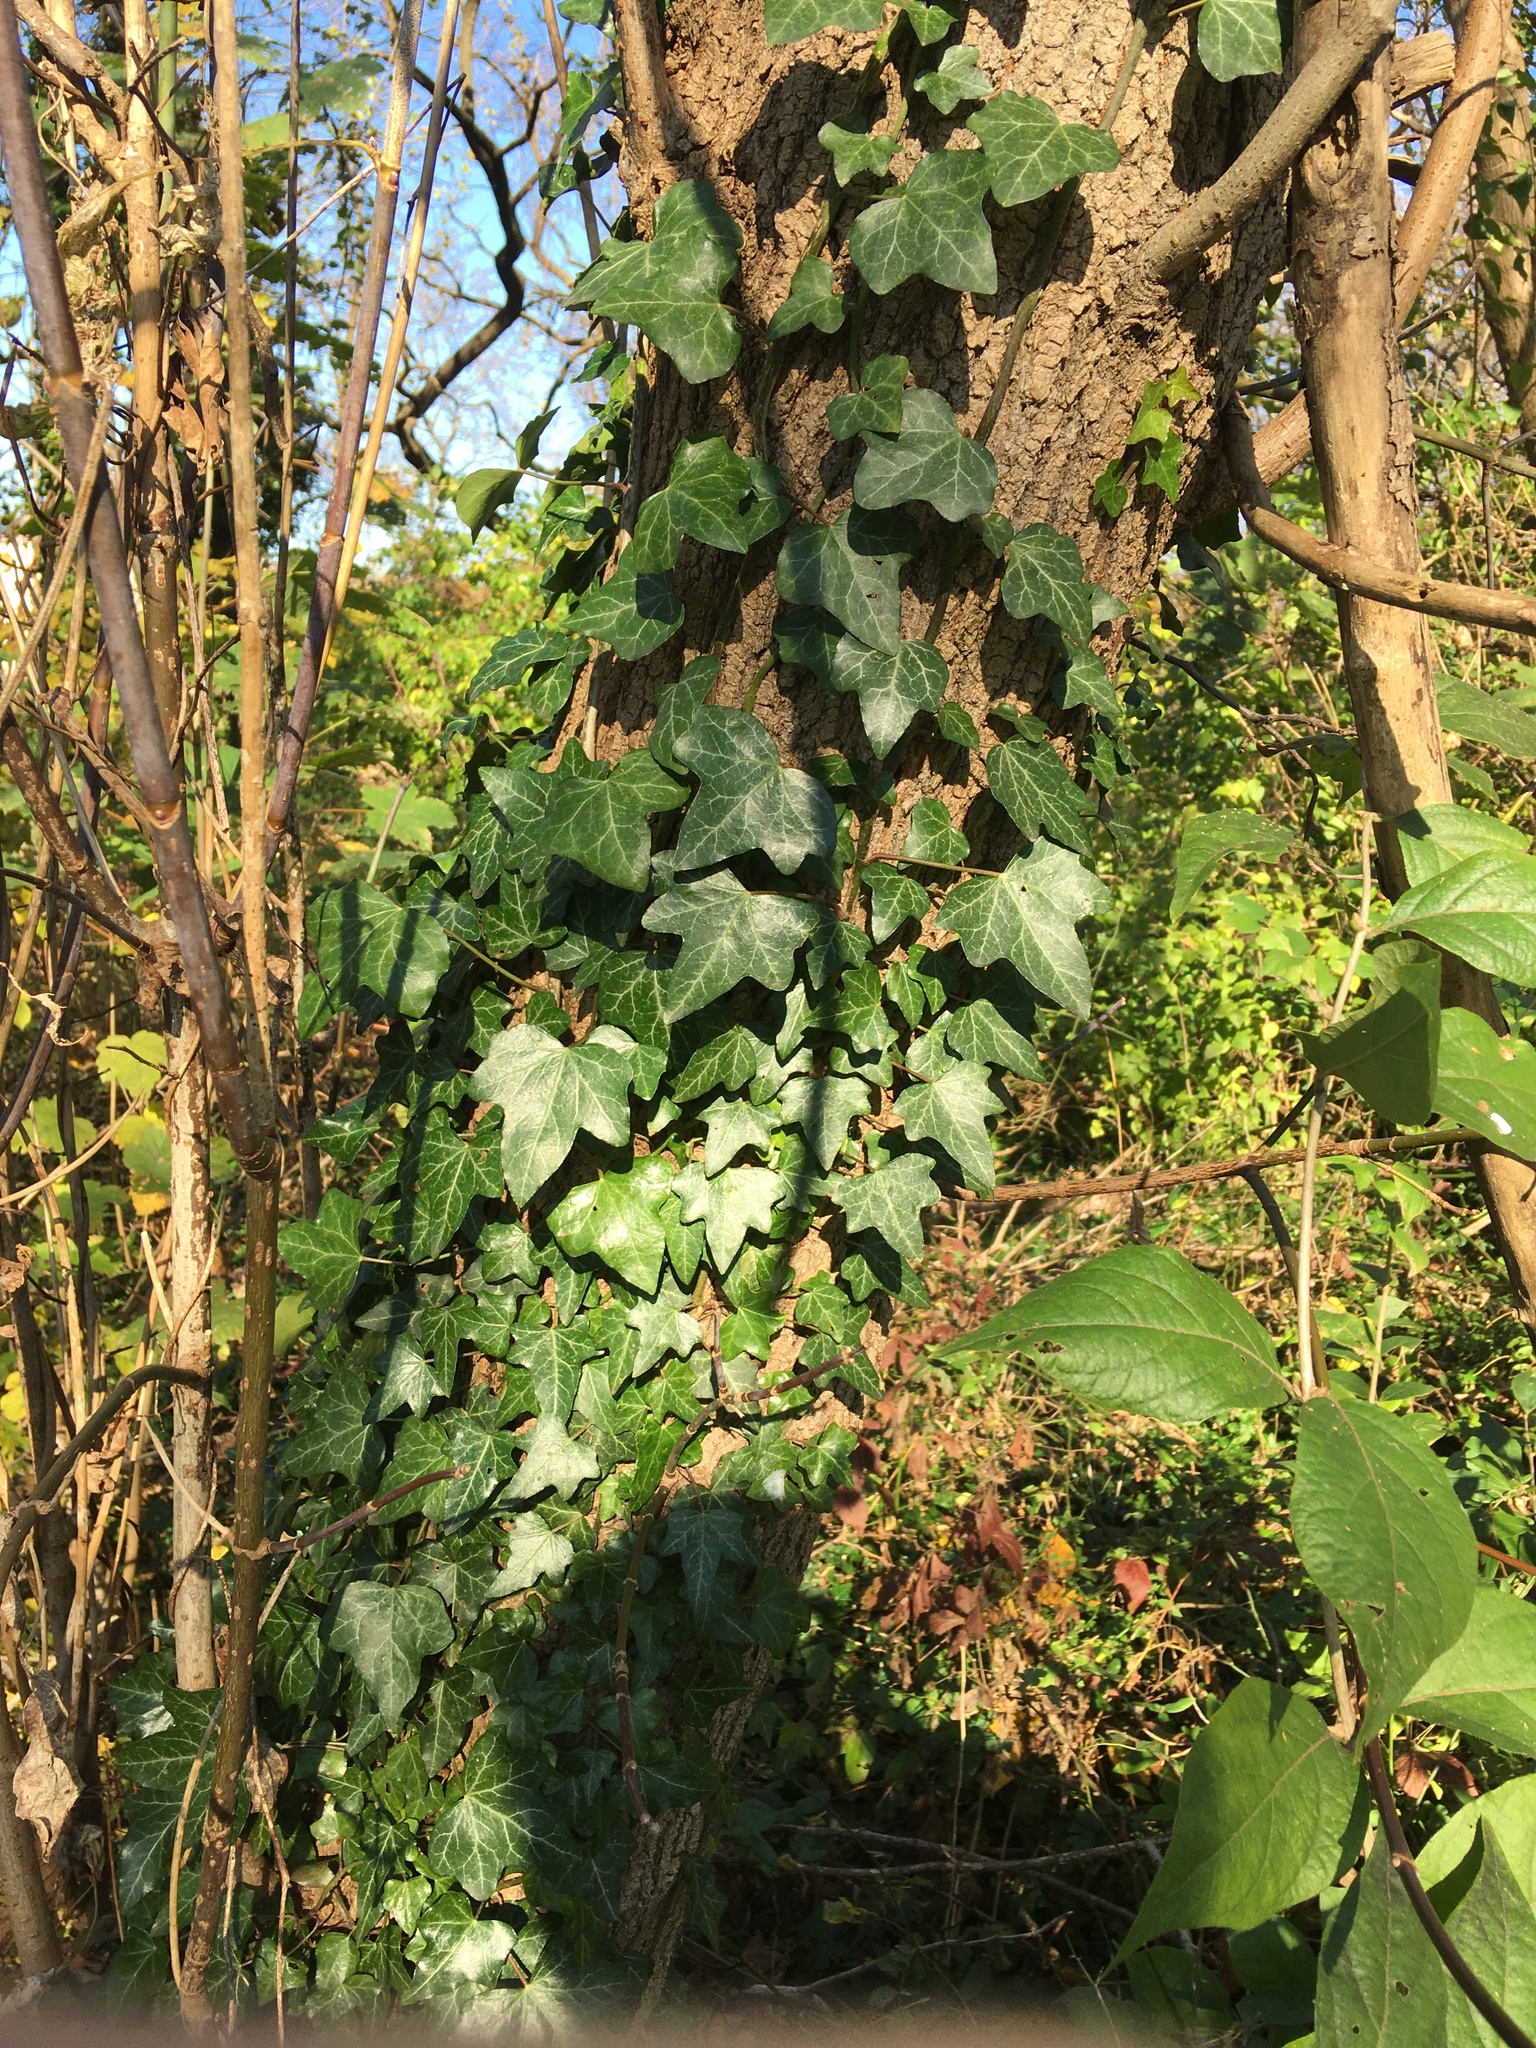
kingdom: Plantae
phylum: Tracheophyta
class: Magnoliopsida
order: Apiales
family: Araliaceae
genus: Hedera
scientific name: Hedera helix
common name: Ivy
